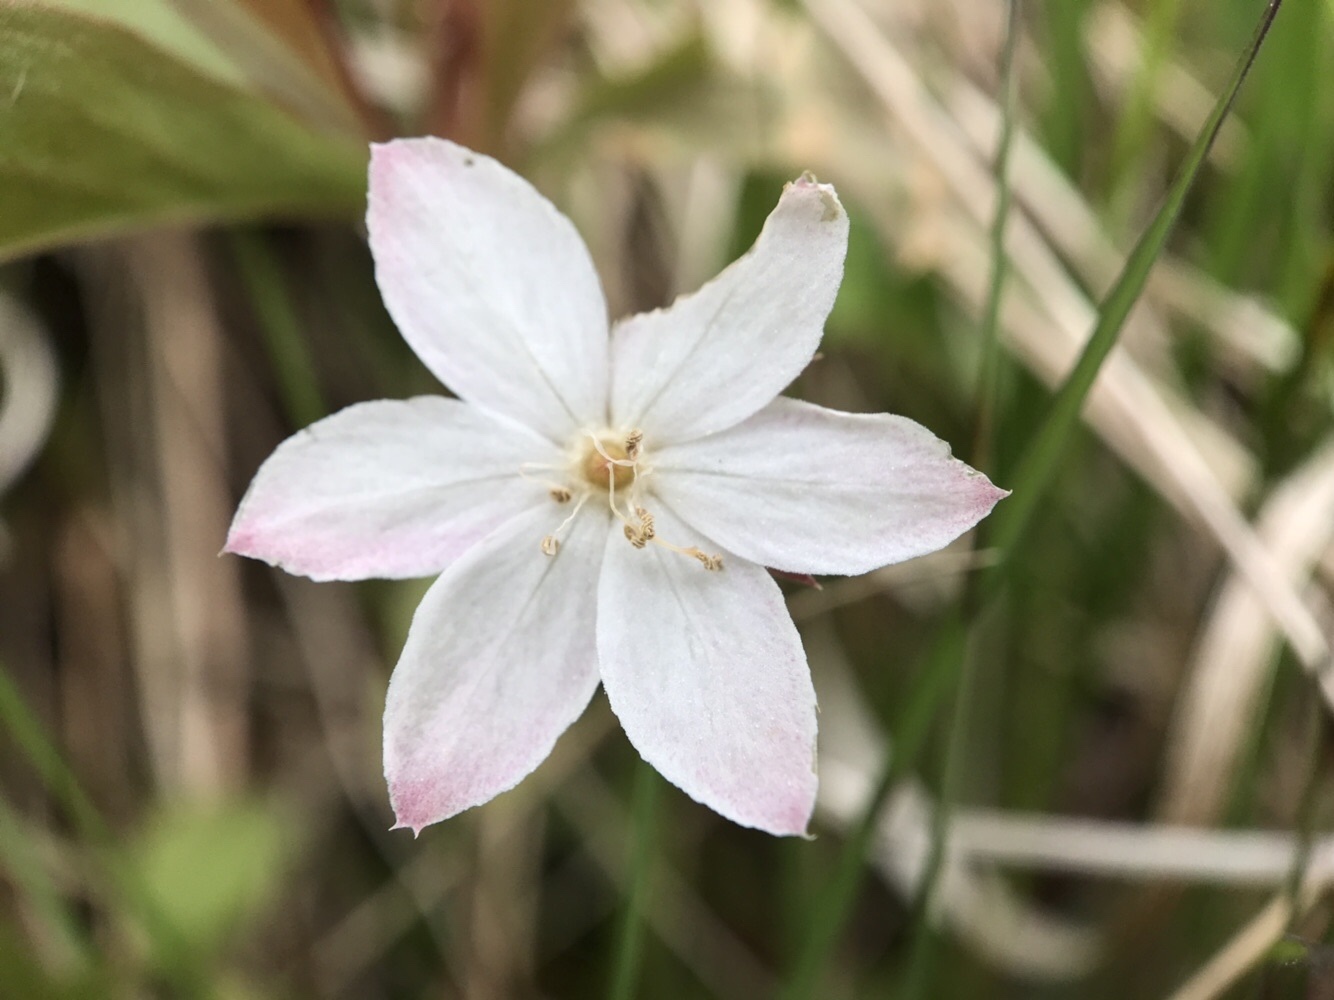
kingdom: Plantae
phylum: Tracheophyta
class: Magnoliopsida
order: Ericales
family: Primulaceae
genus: Lysimachia
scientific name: Lysimachia europaea
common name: Arctic starflower
